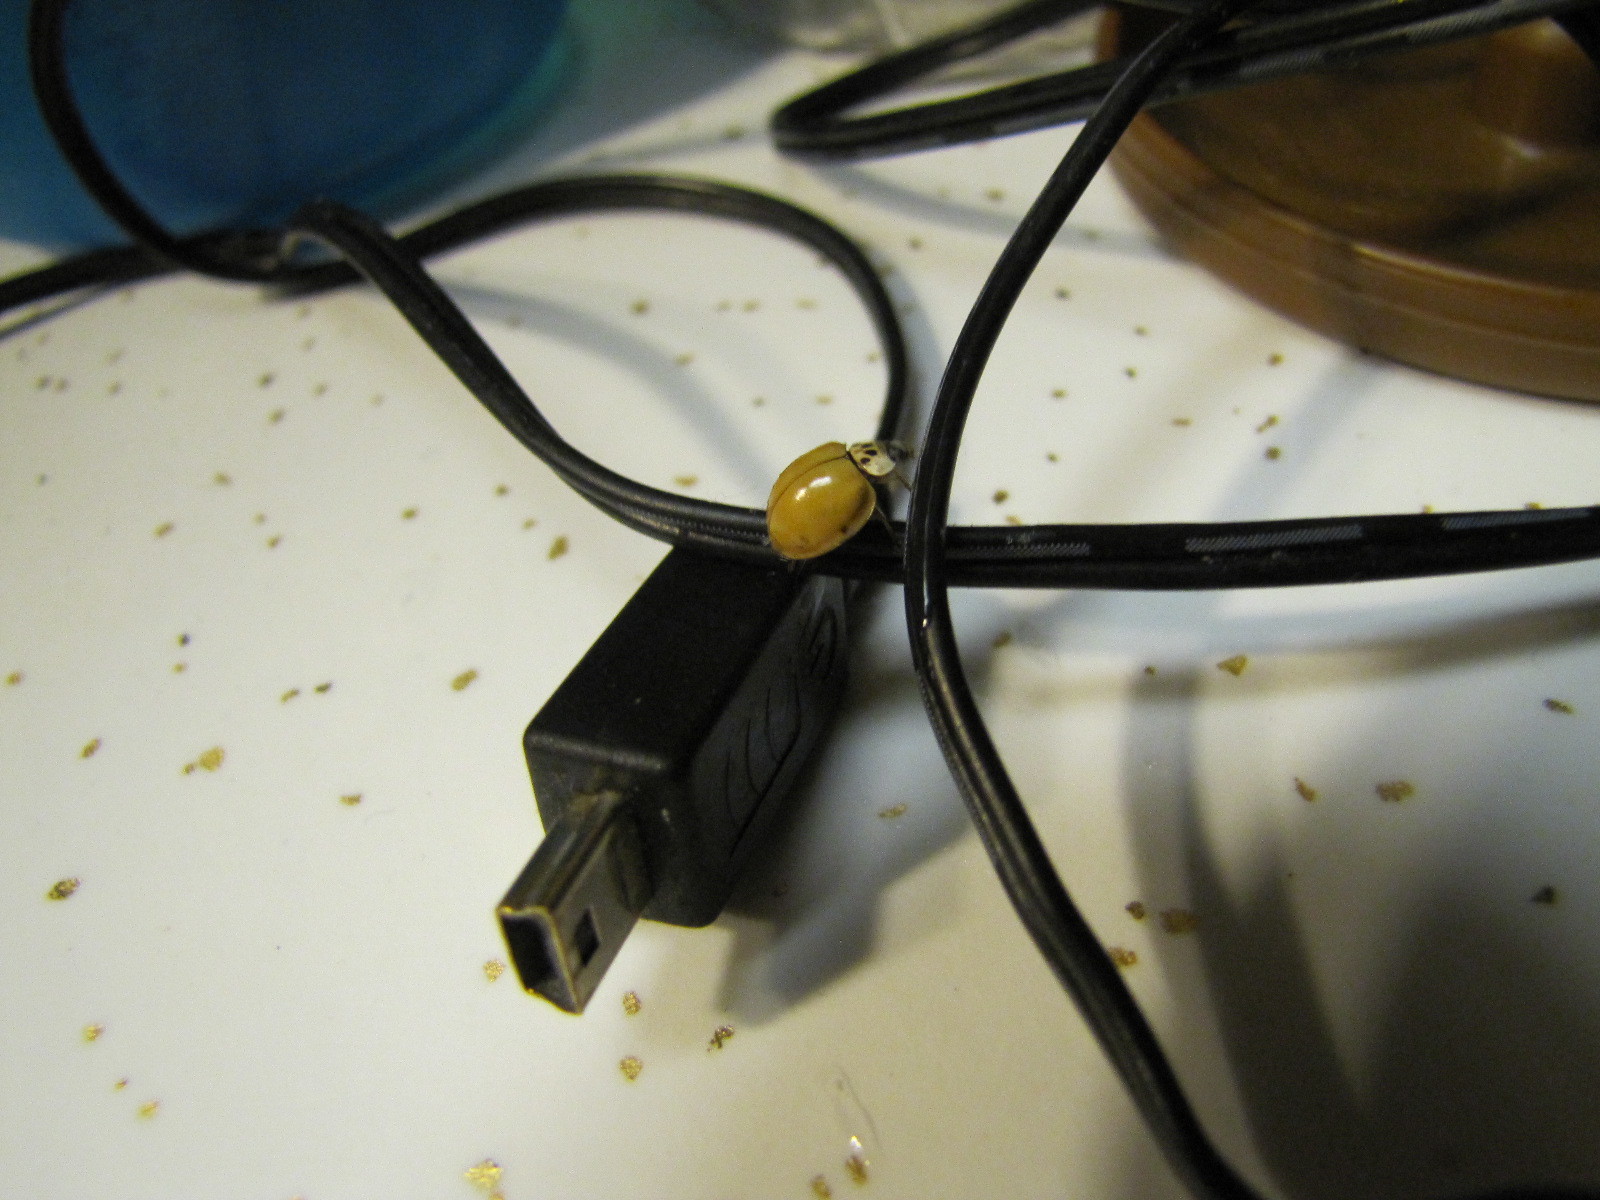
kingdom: Animalia
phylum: Arthropoda
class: Insecta
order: Coleoptera
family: Coccinellidae
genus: Harmonia
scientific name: Harmonia axyridis
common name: Harlequin ladybird
